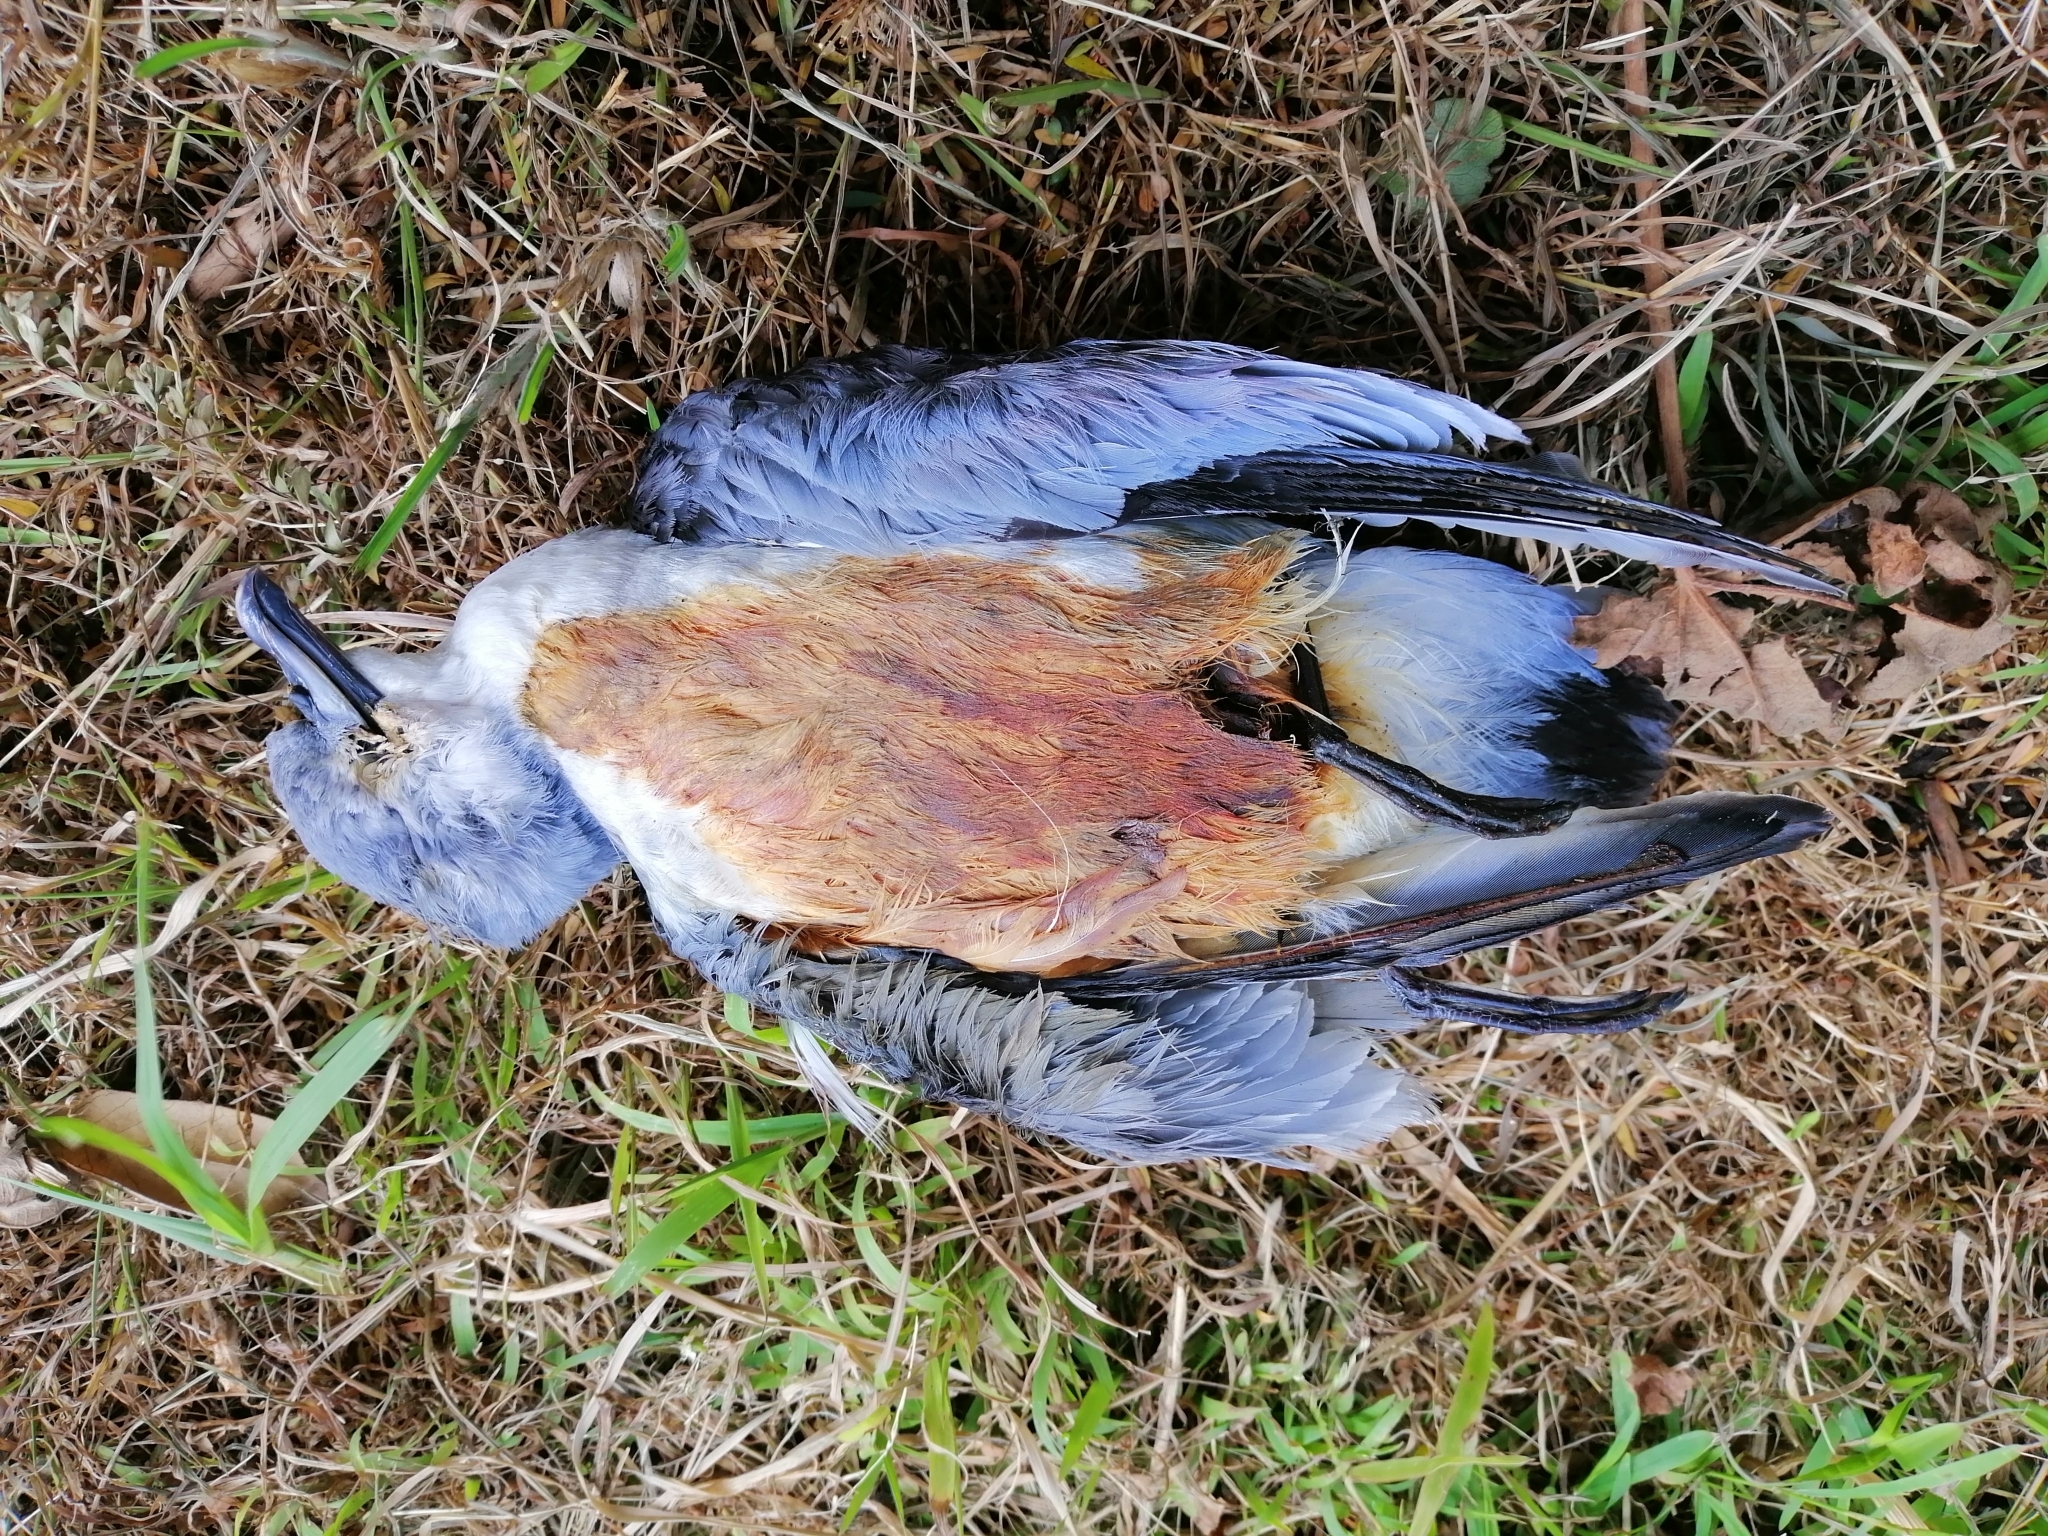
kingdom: Animalia
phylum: Chordata
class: Aves
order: Procellariiformes
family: Procellariidae
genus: Pachyptila
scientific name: Pachyptila turtur
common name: Fairy prion
